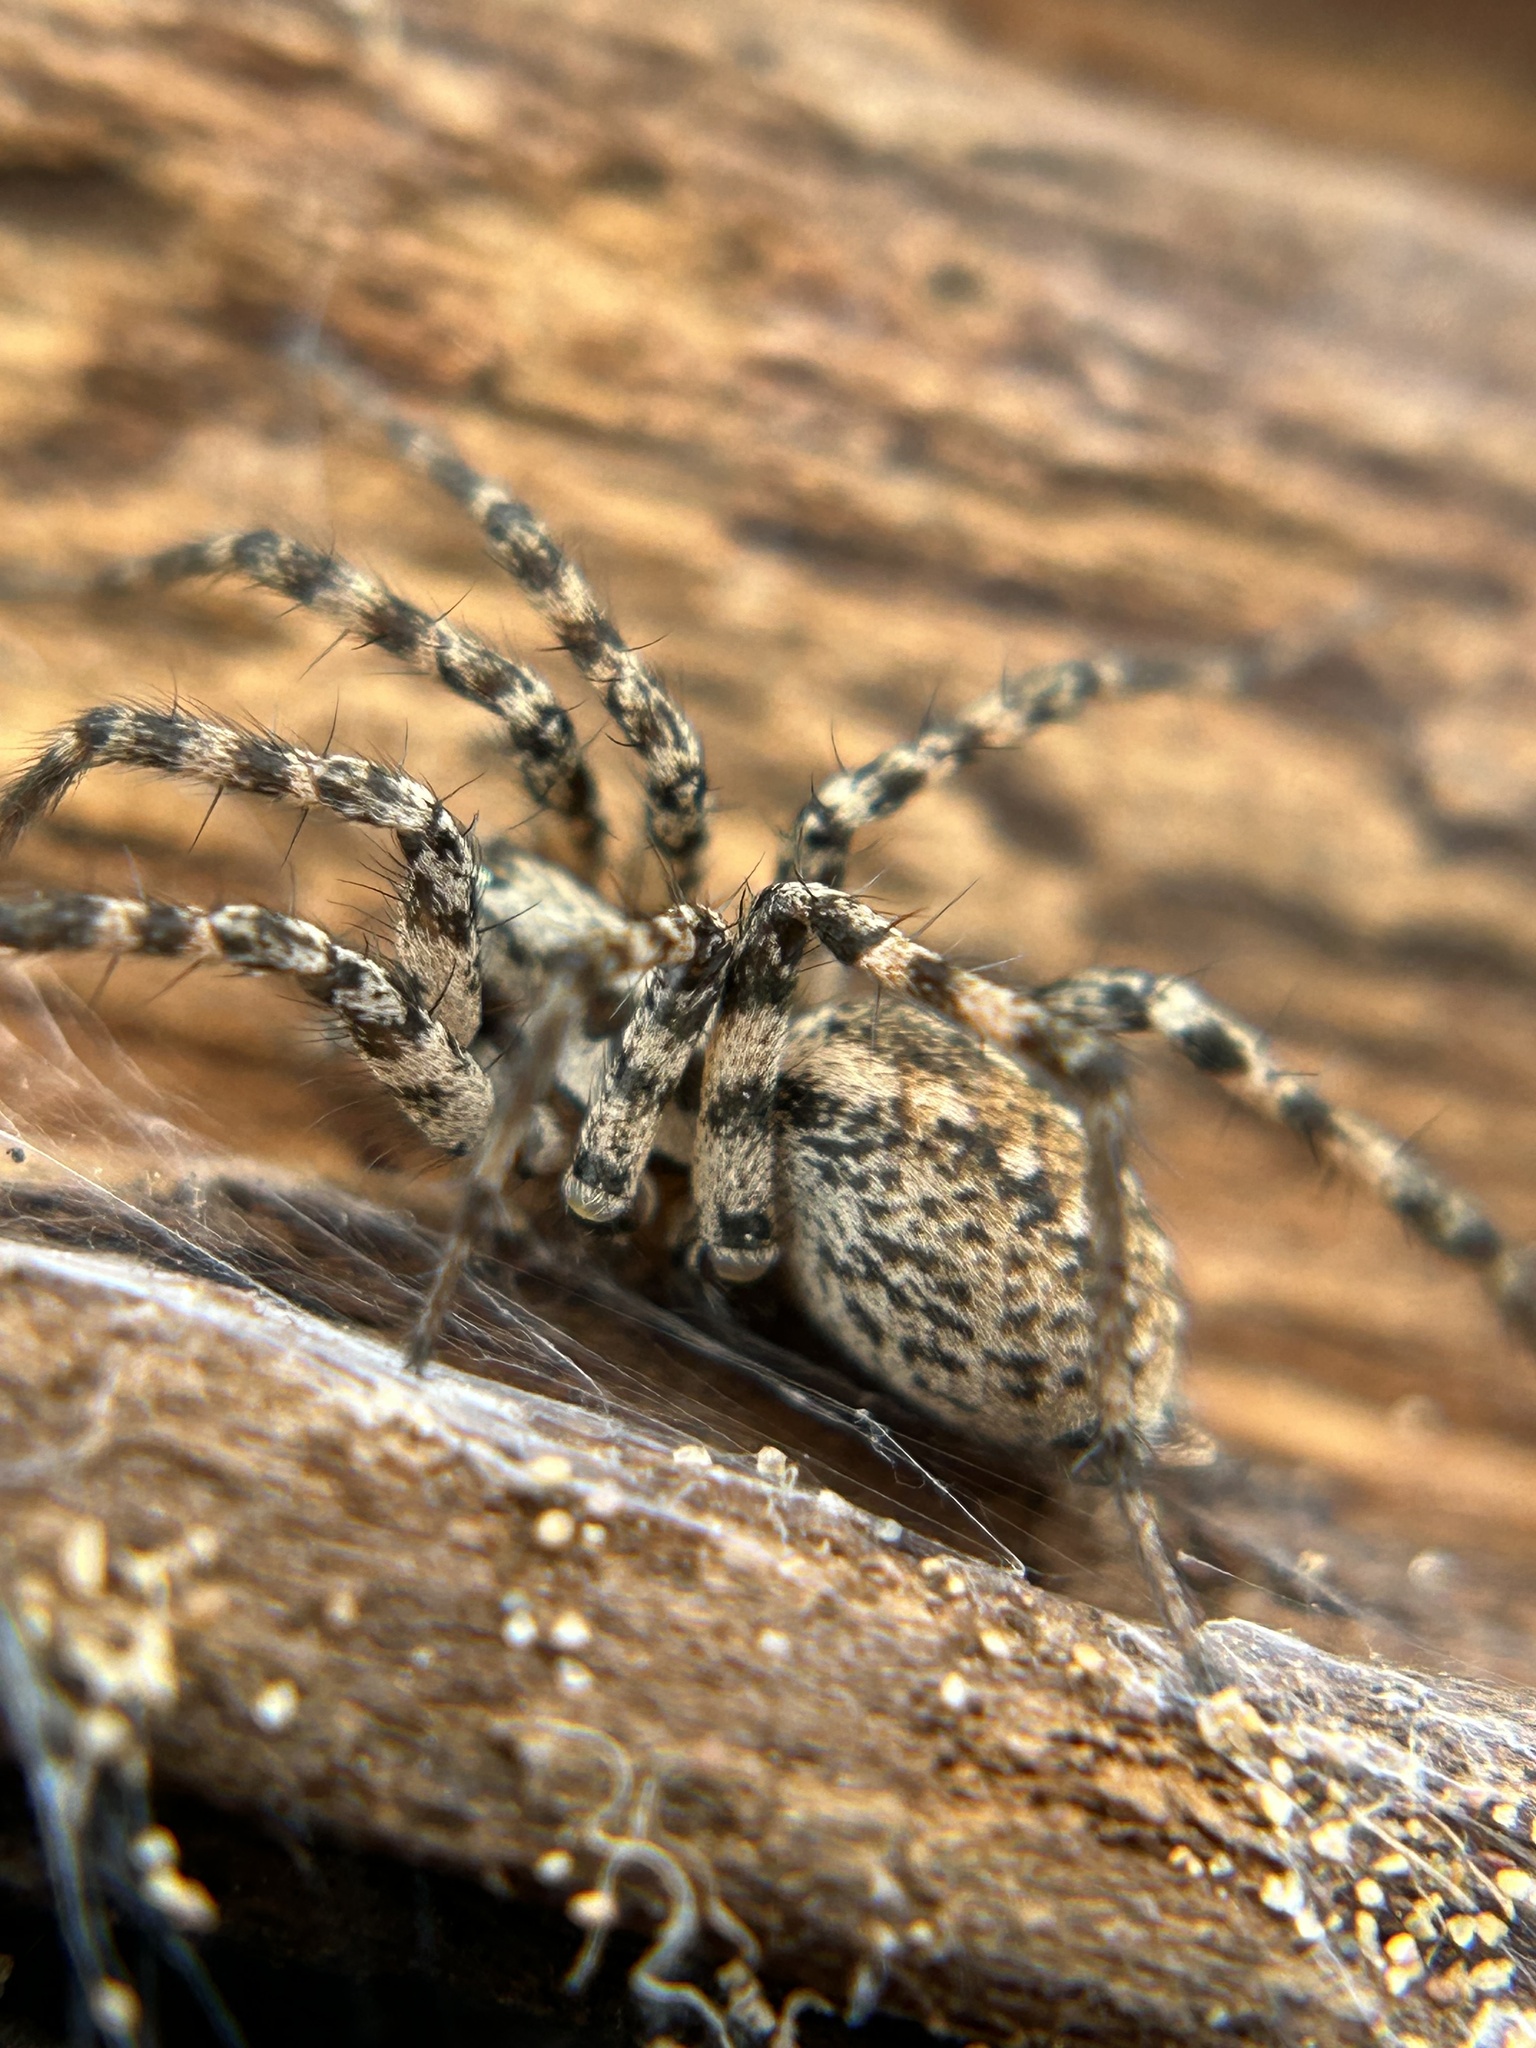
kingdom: Animalia
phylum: Arthropoda
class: Arachnida
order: Araneae
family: Agelenidae
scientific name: Agelenidae
